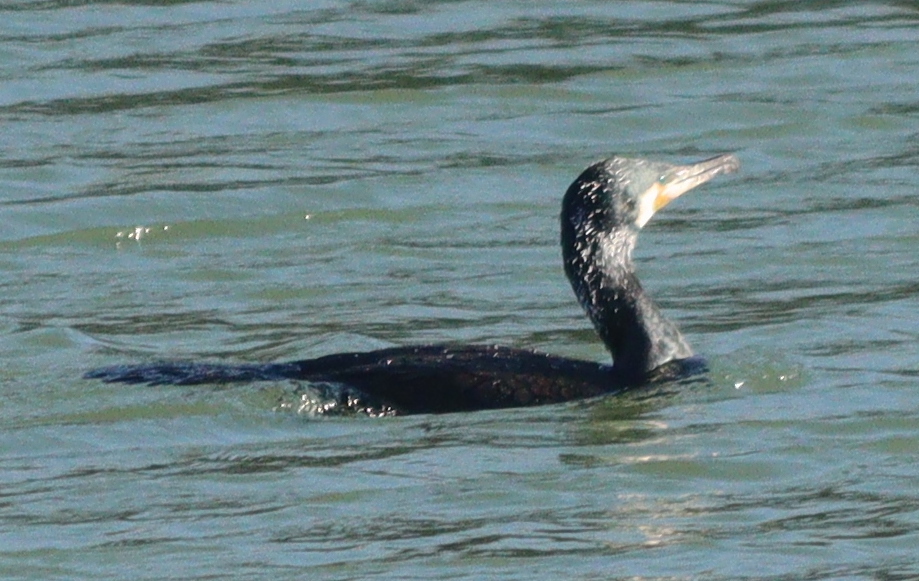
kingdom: Animalia
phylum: Chordata
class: Aves
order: Suliformes
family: Phalacrocoracidae
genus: Phalacrocorax
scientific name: Phalacrocorax carbo
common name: Great cormorant
